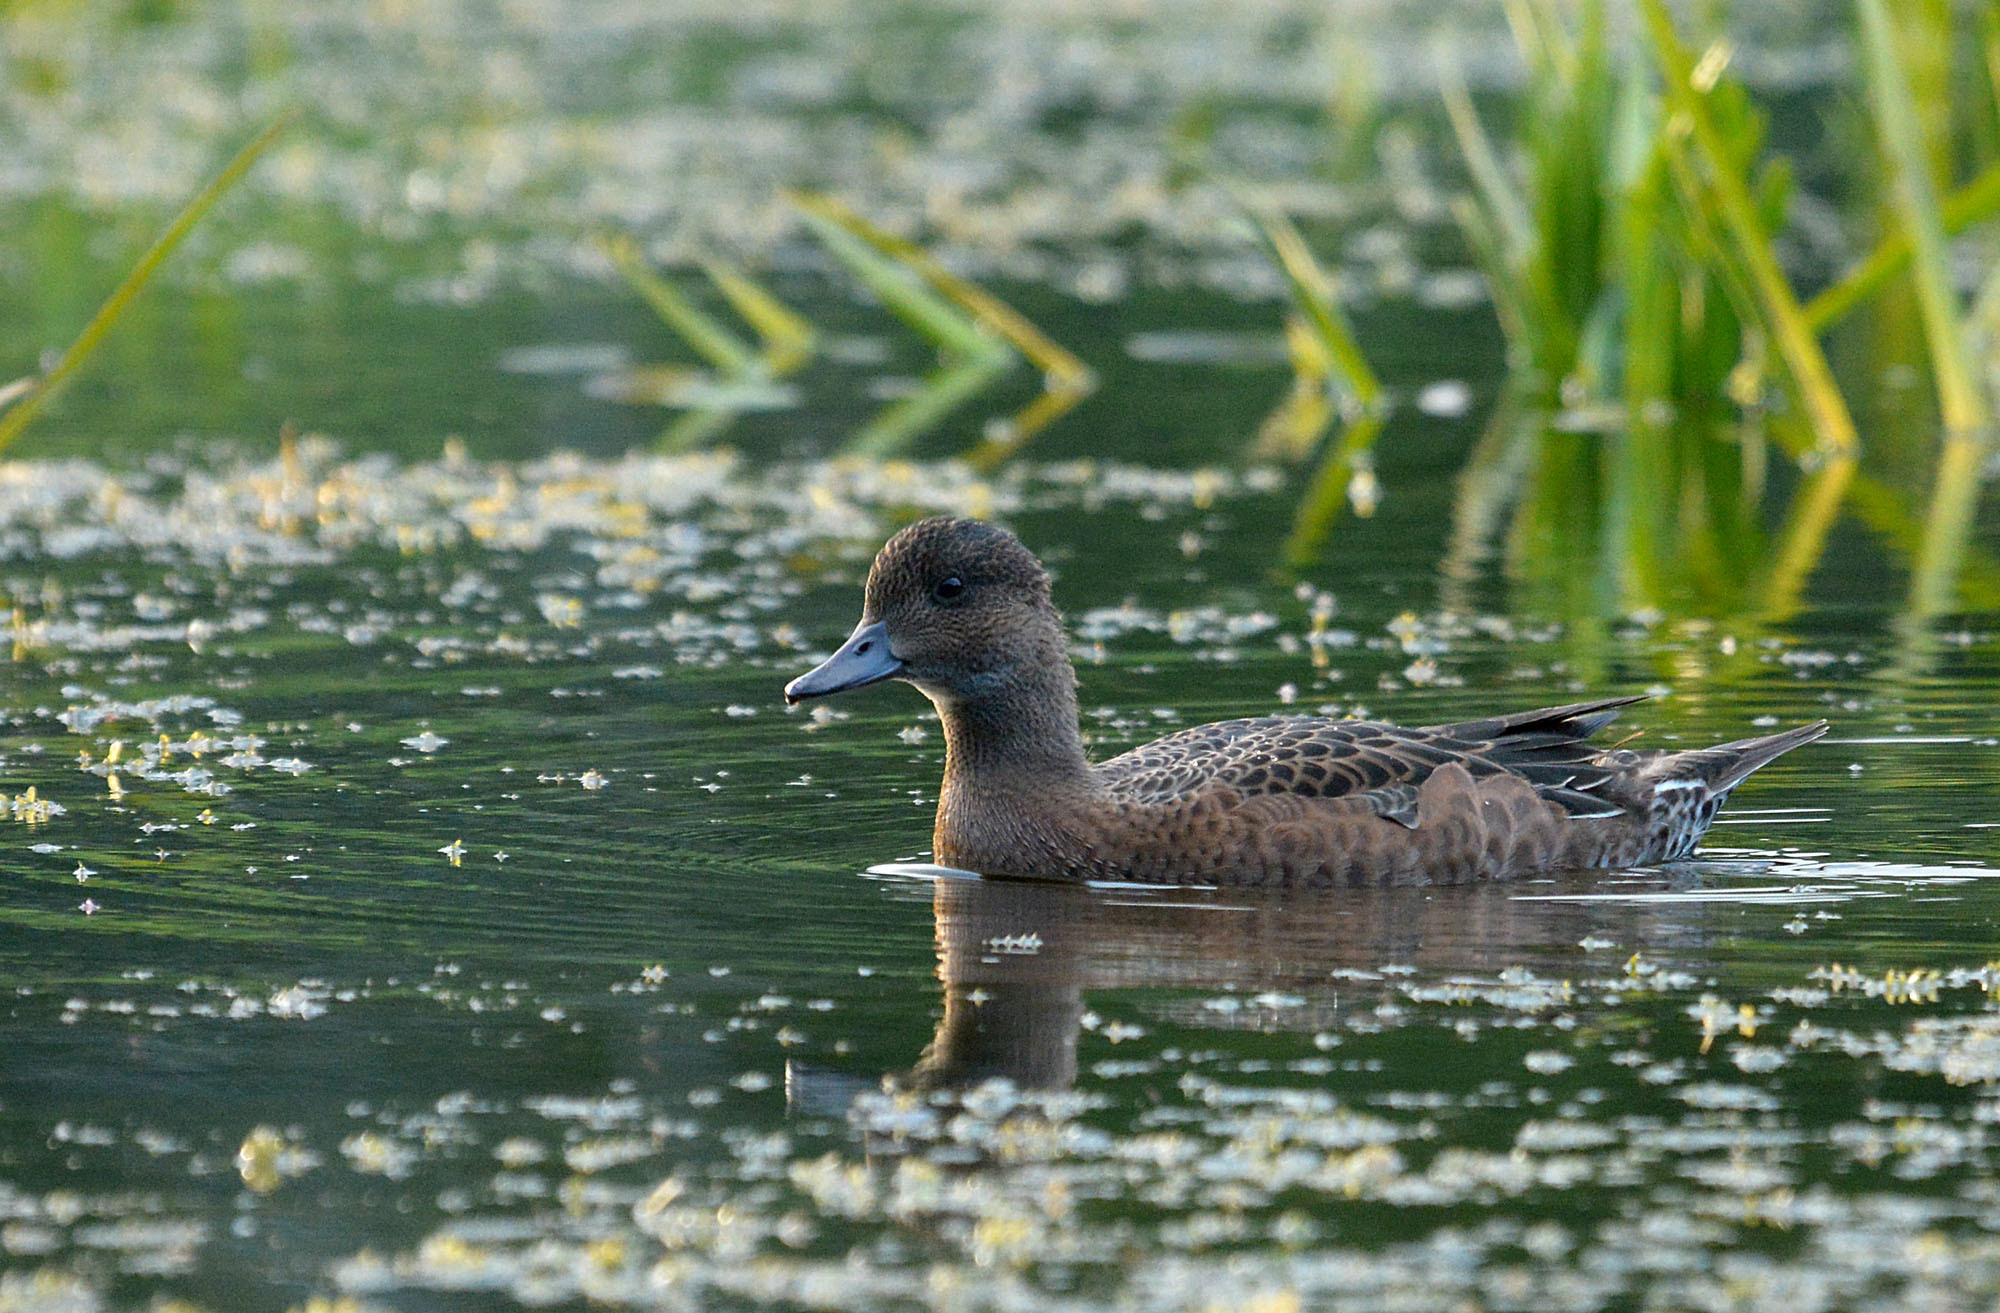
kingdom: Animalia
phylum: Chordata
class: Aves
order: Anseriformes
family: Anatidae
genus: Mareca
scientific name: Mareca penelope
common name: Eurasian wigeon
